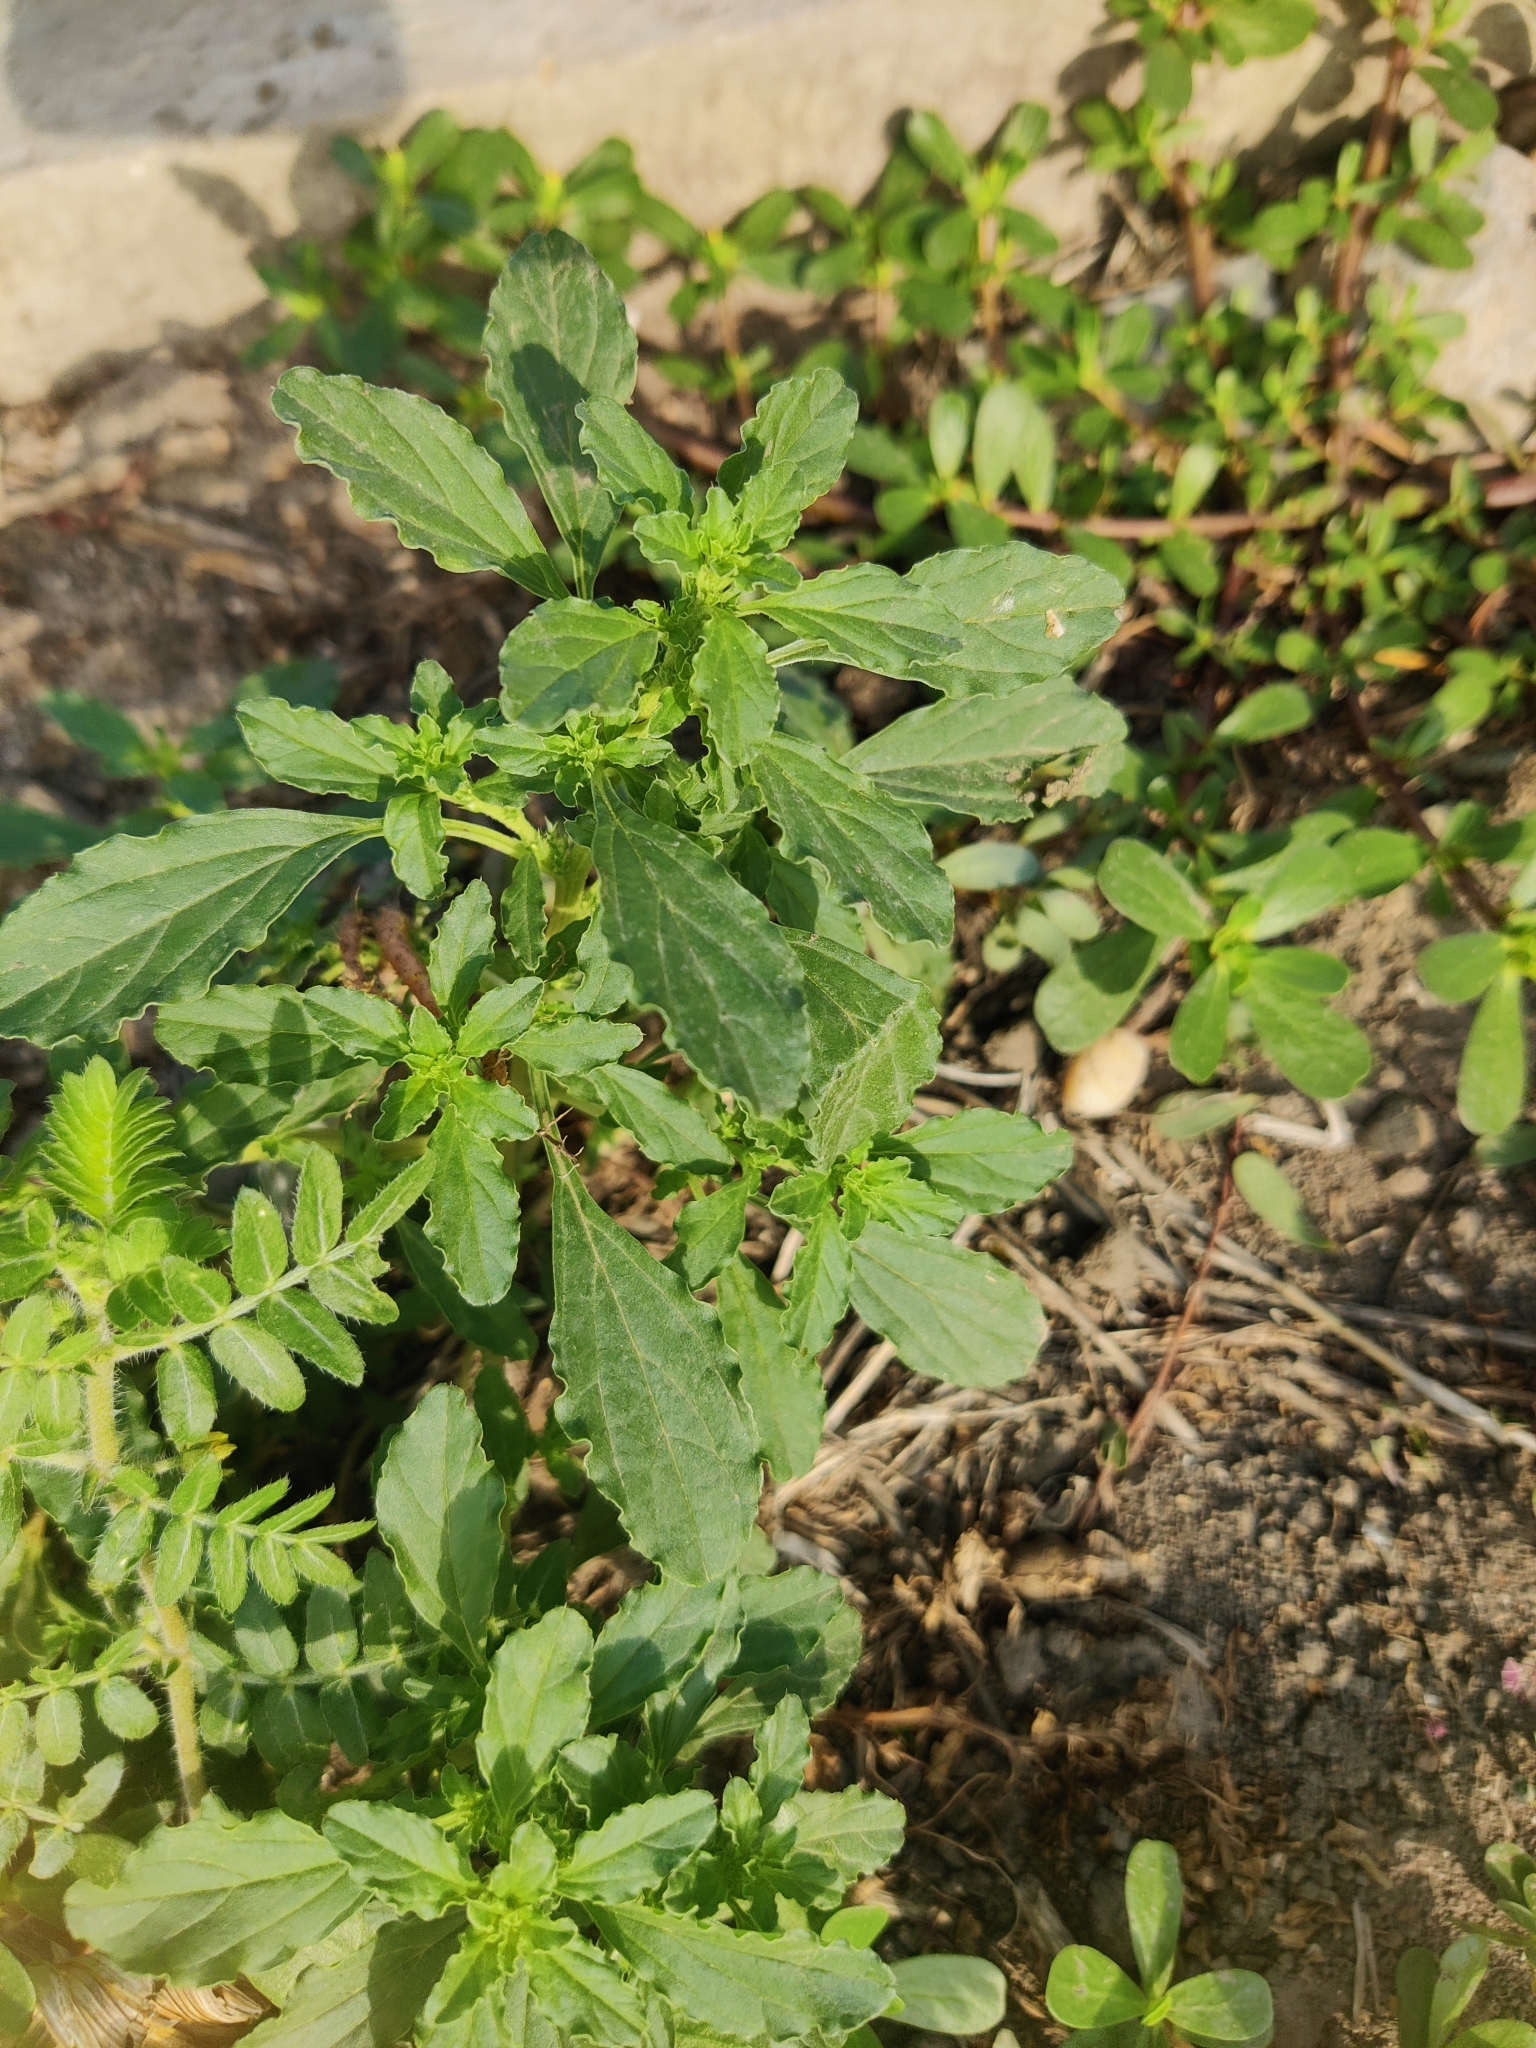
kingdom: Plantae
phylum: Tracheophyta
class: Magnoliopsida
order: Caryophyllales
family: Amaranthaceae
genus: Amaranthus
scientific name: Amaranthus retroflexus
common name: Redroot amaranth
